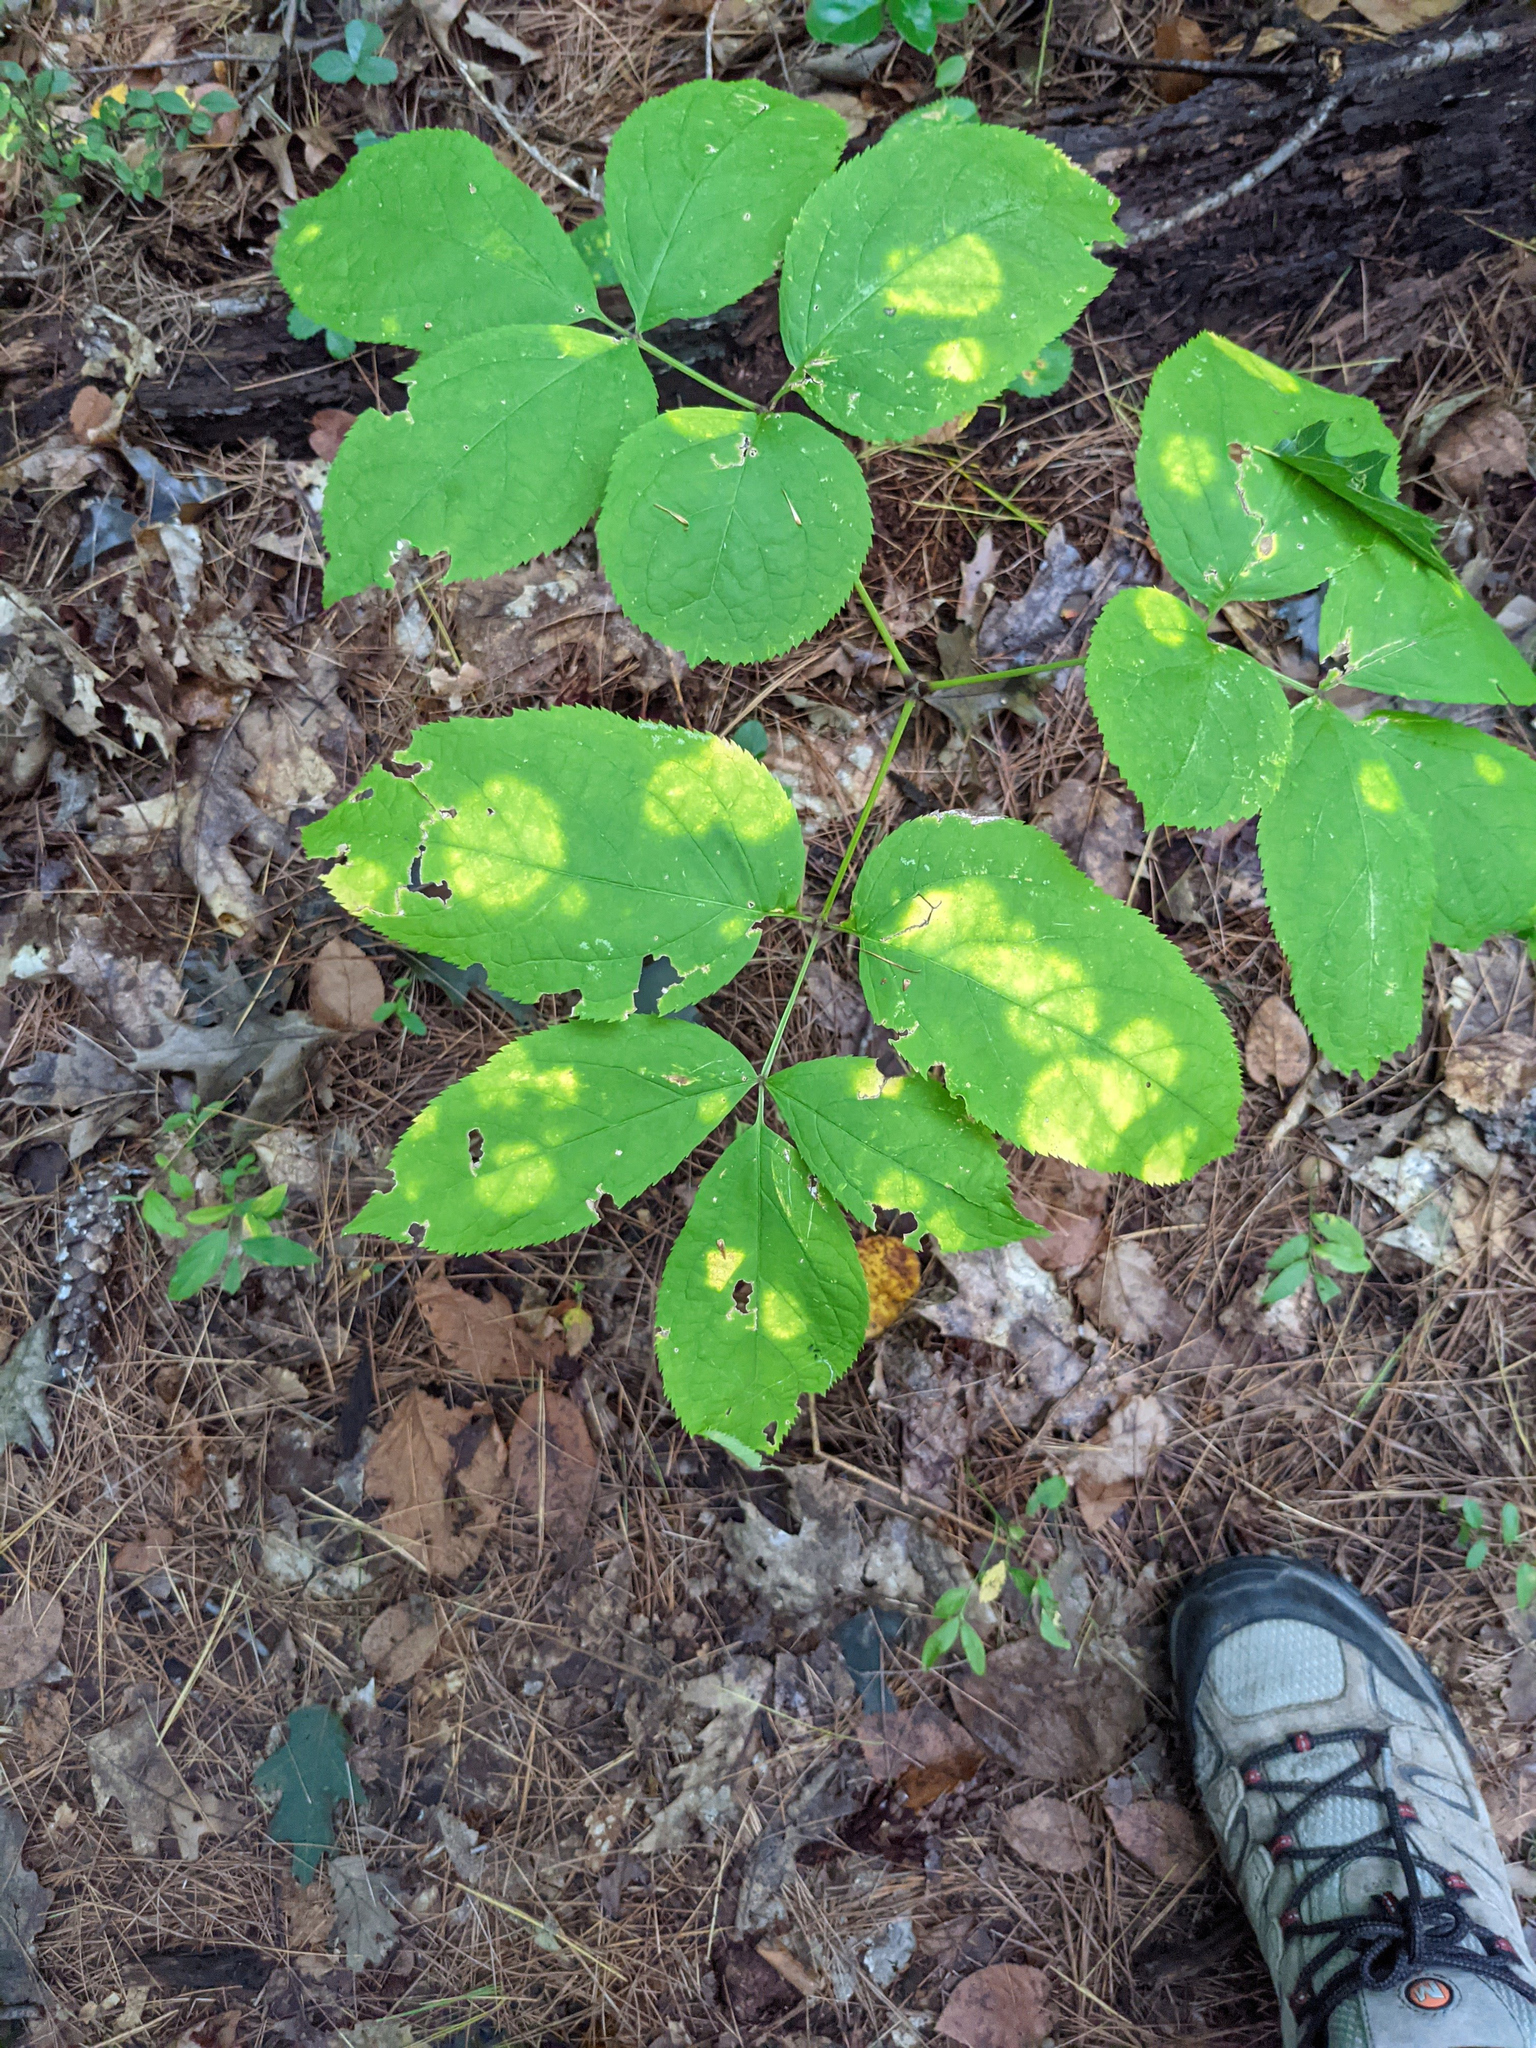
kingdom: Plantae
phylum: Tracheophyta
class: Magnoliopsida
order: Apiales
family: Araliaceae
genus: Aralia
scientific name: Aralia nudicaulis
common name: Wild sarsaparilla
